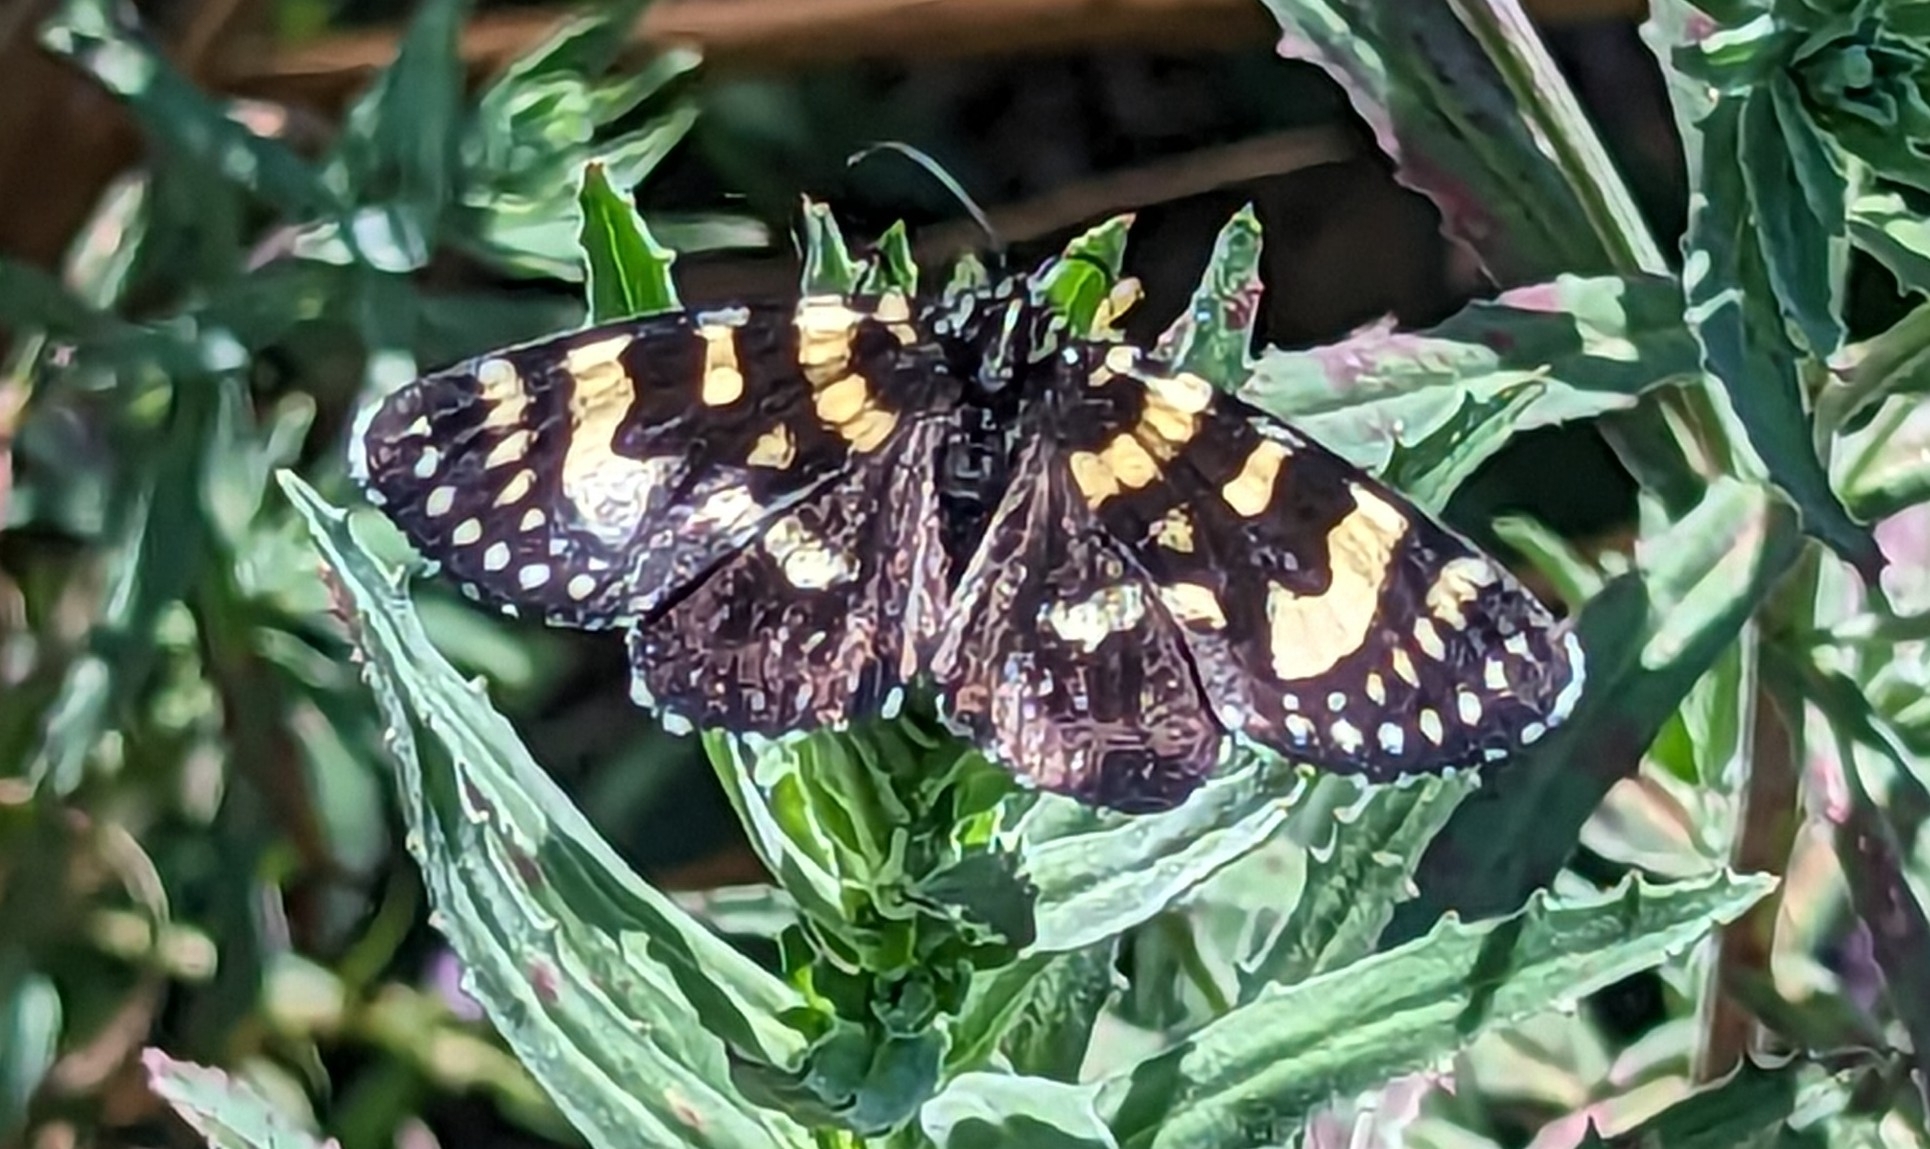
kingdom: Animalia
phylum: Arthropoda
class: Insecta
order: Lepidoptera
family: Noctuidae
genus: Phalaenoides
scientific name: Phalaenoides tristifica
